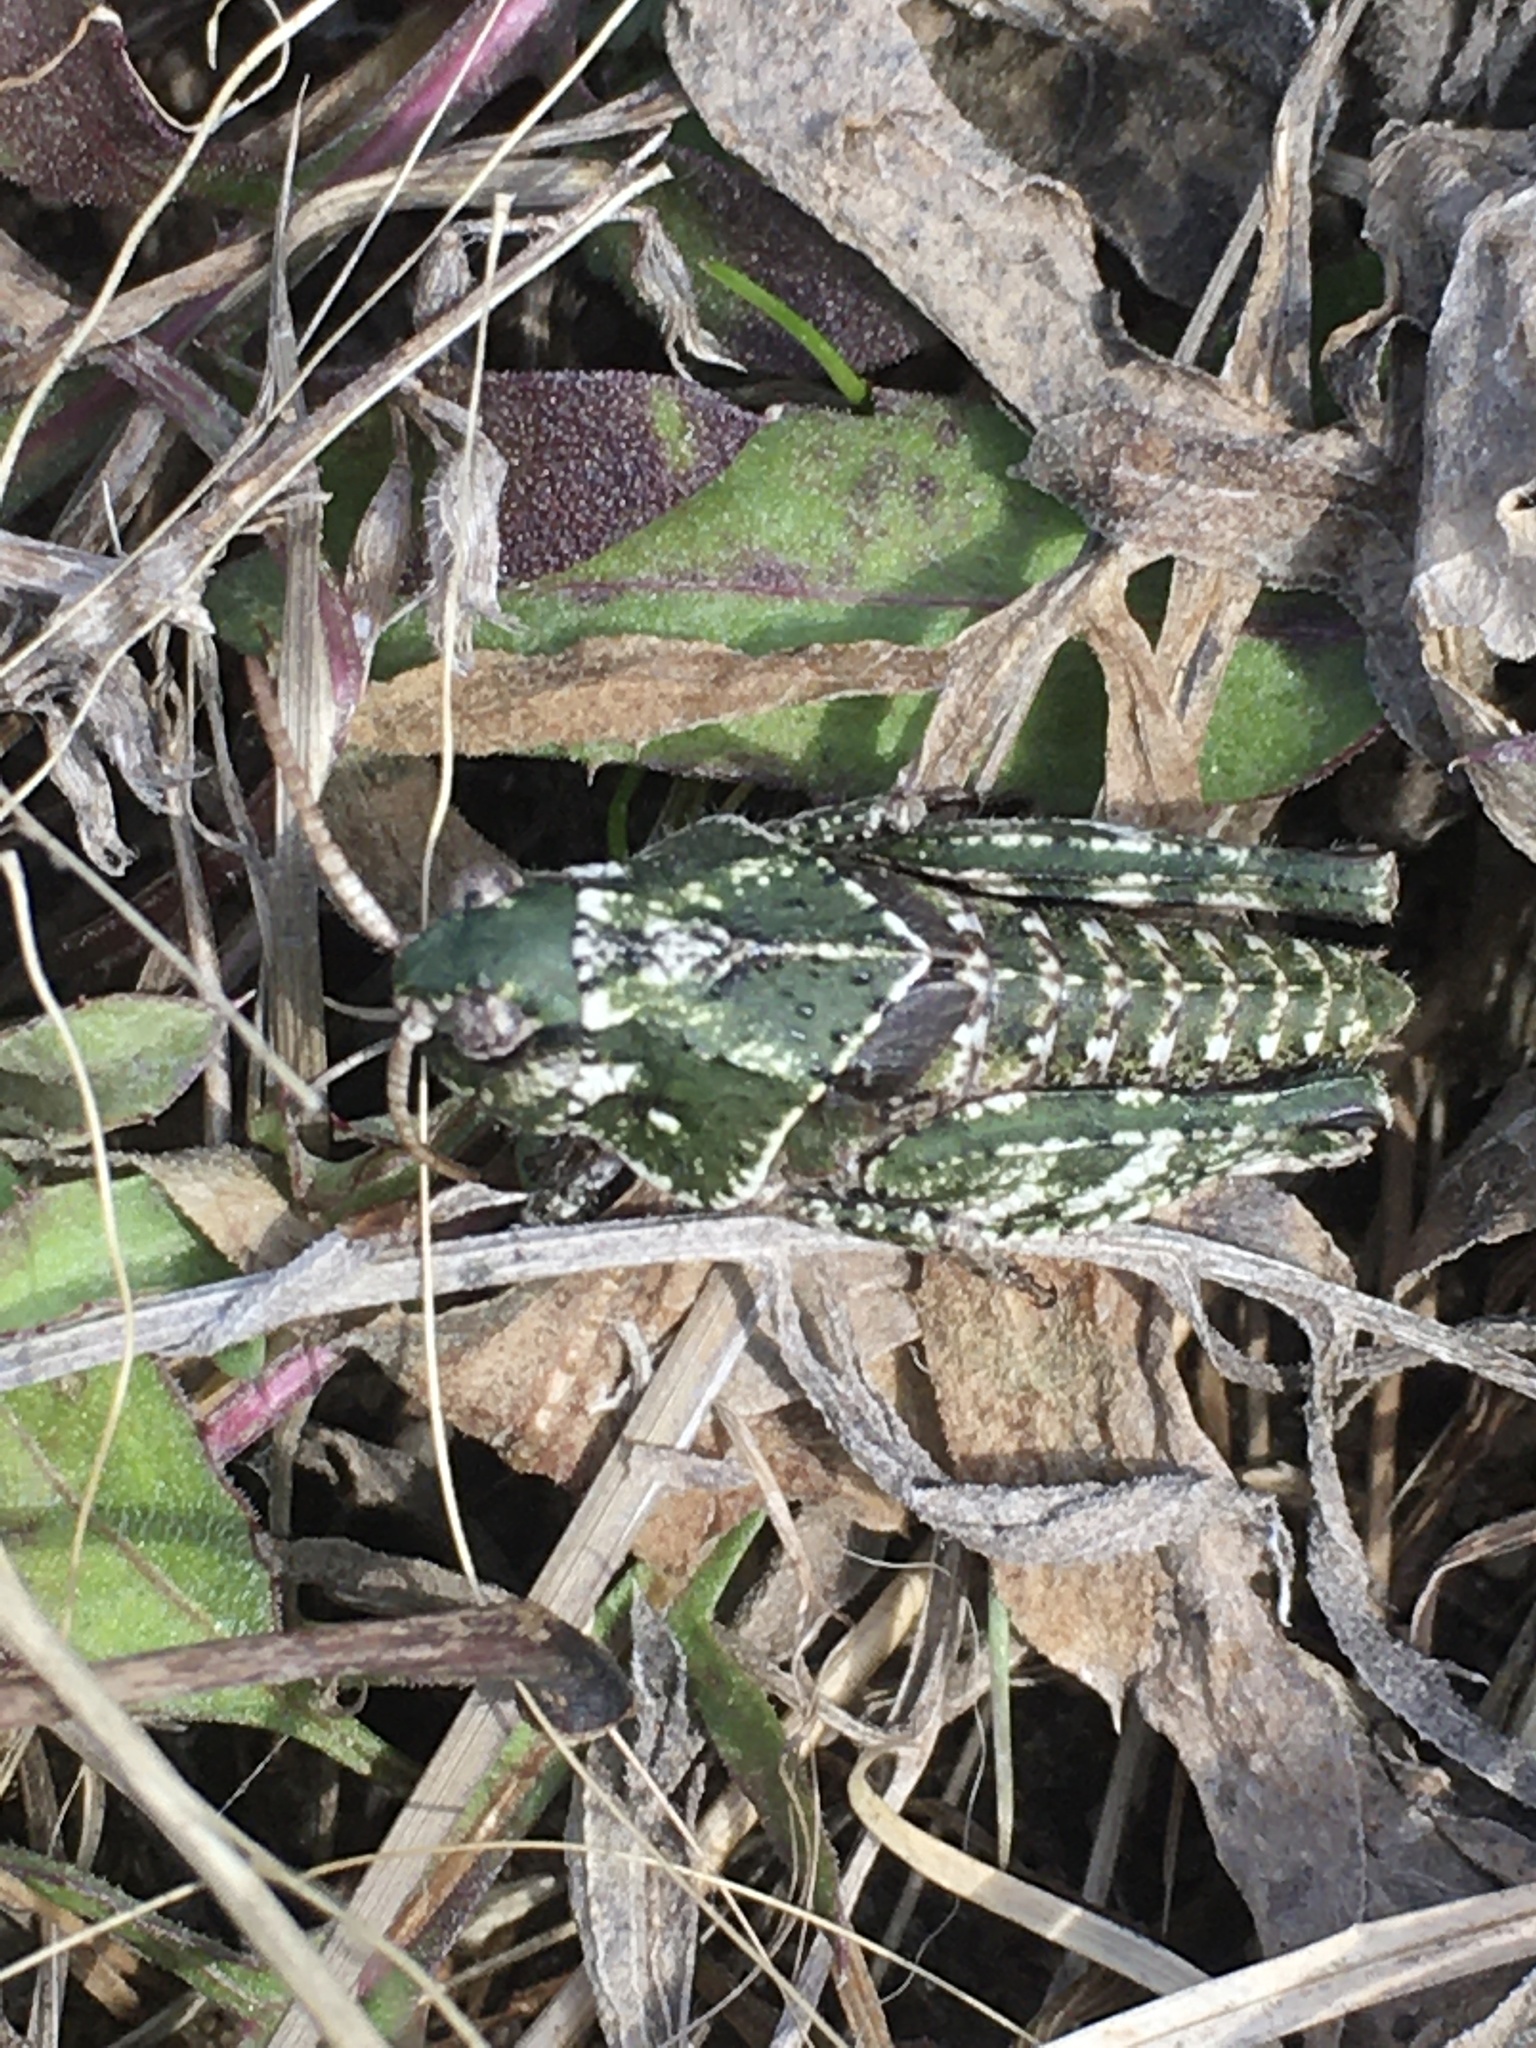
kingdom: Animalia
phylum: Arthropoda
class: Insecta
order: Orthoptera
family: Acrididae
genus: Pardalophora
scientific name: Pardalophora apiculata
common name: Coral-winged locust
